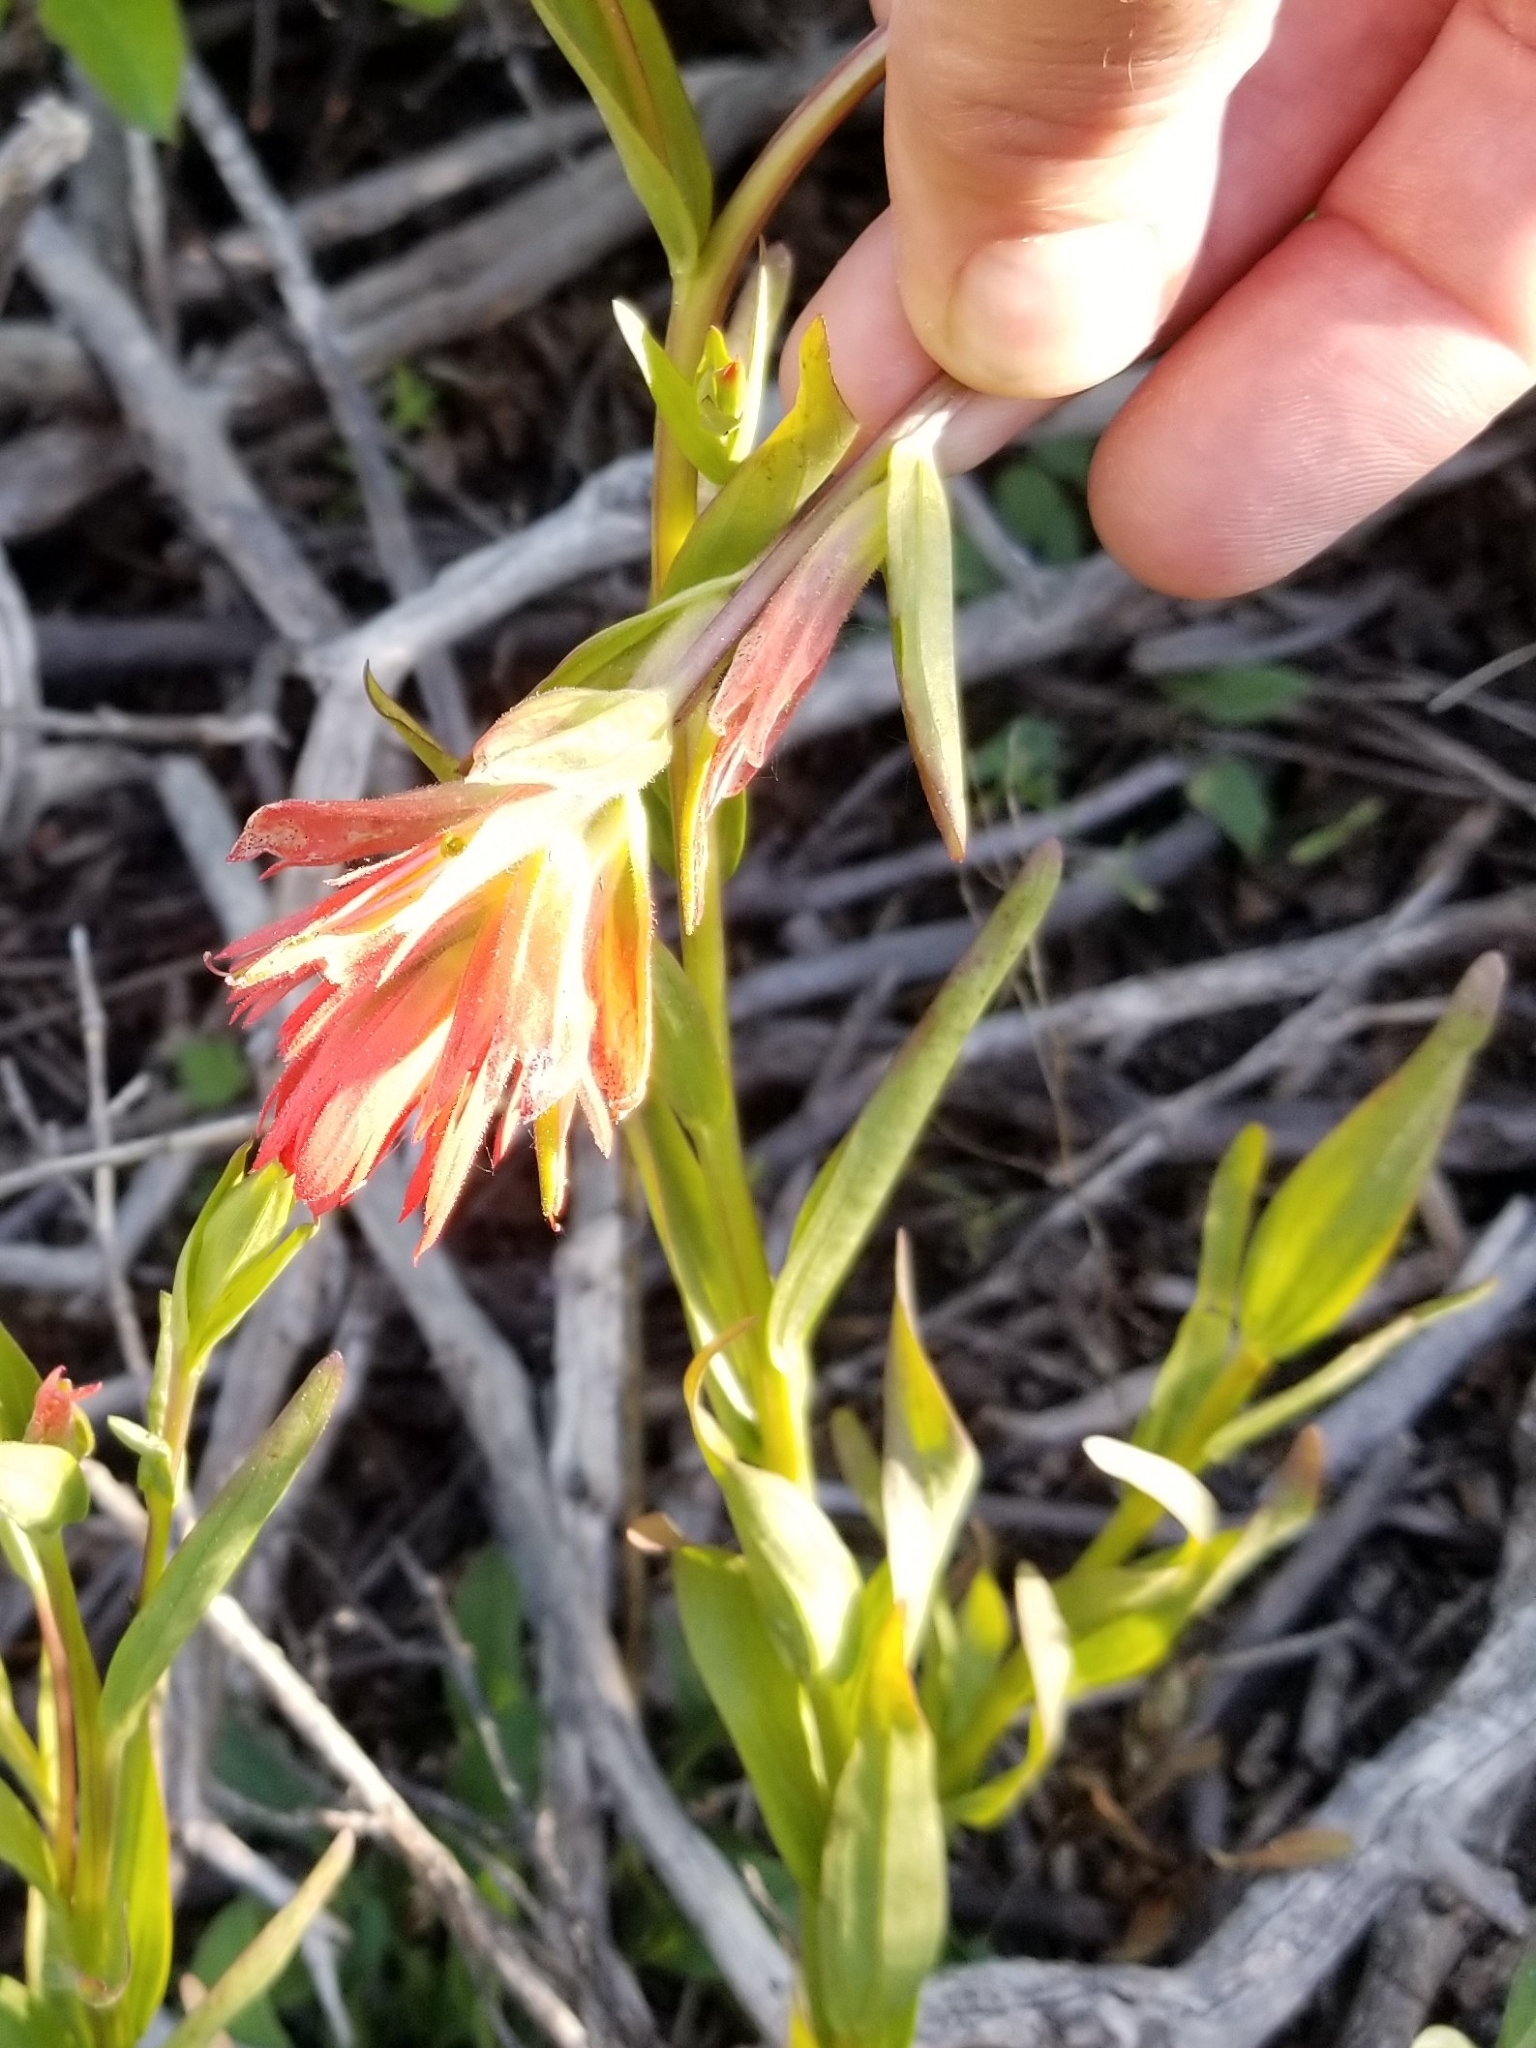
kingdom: Plantae
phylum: Tracheophyta
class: Magnoliopsida
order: Lamiales
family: Orobanchaceae
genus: Castilleja
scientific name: Castilleja miniata
